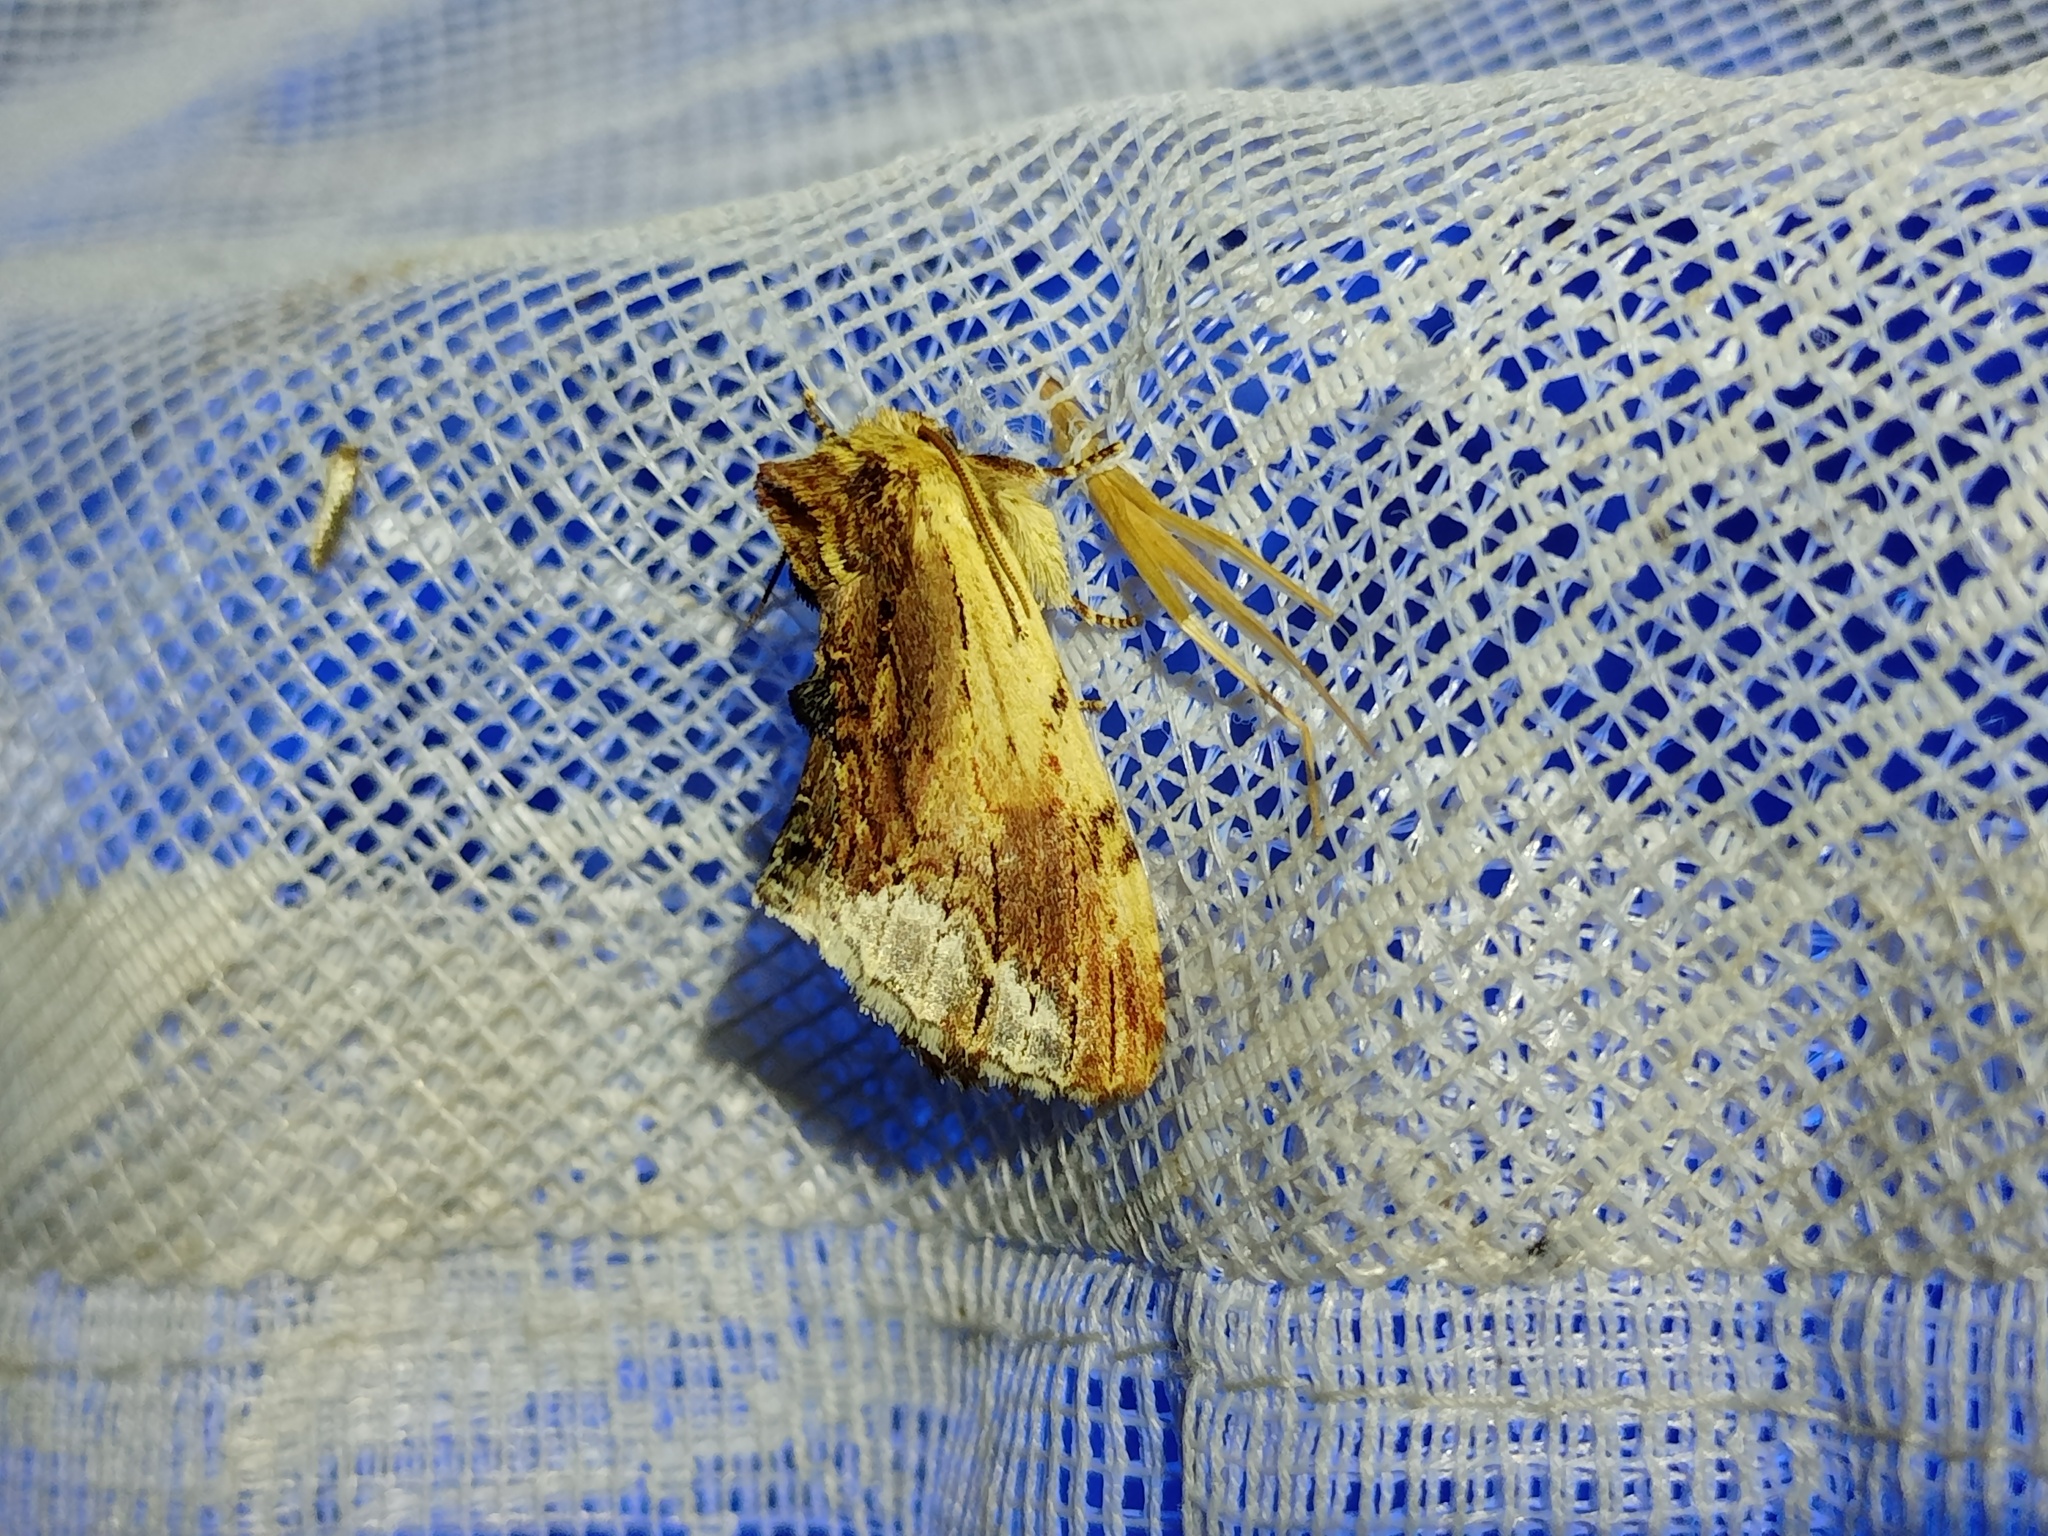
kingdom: Animalia
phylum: Arthropoda
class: Insecta
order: Lepidoptera
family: Notodontidae
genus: Ptilodon
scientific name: Ptilodon cucullina
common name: Maple prominent
